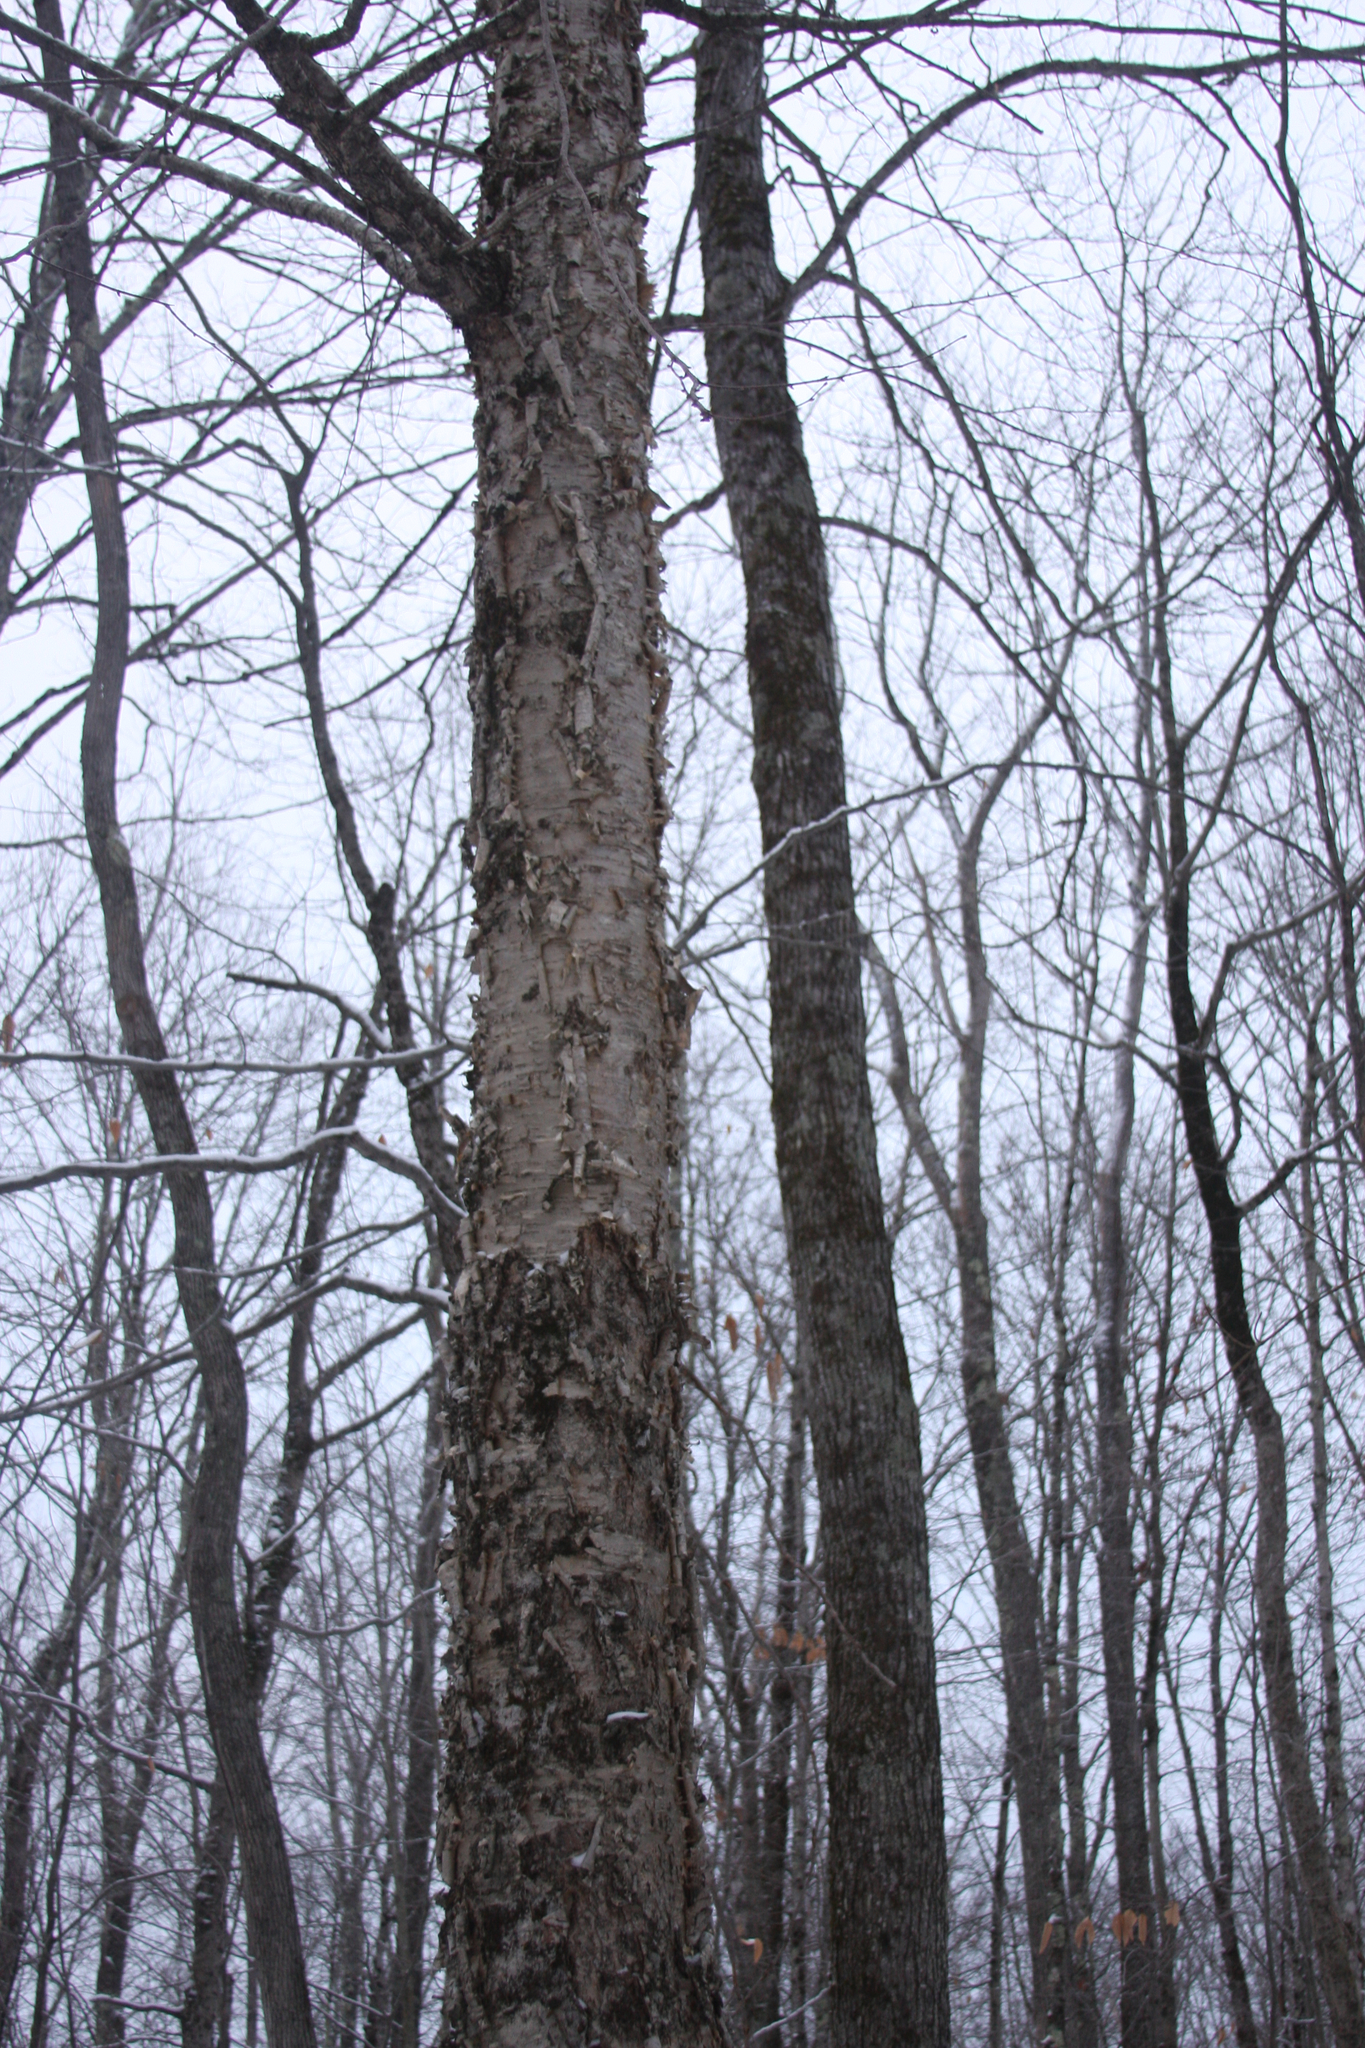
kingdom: Plantae
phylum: Tracheophyta
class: Magnoliopsida
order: Fagales
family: Betulaceae
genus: Betula
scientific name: Betula alleghaniensis
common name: Yellow birch
